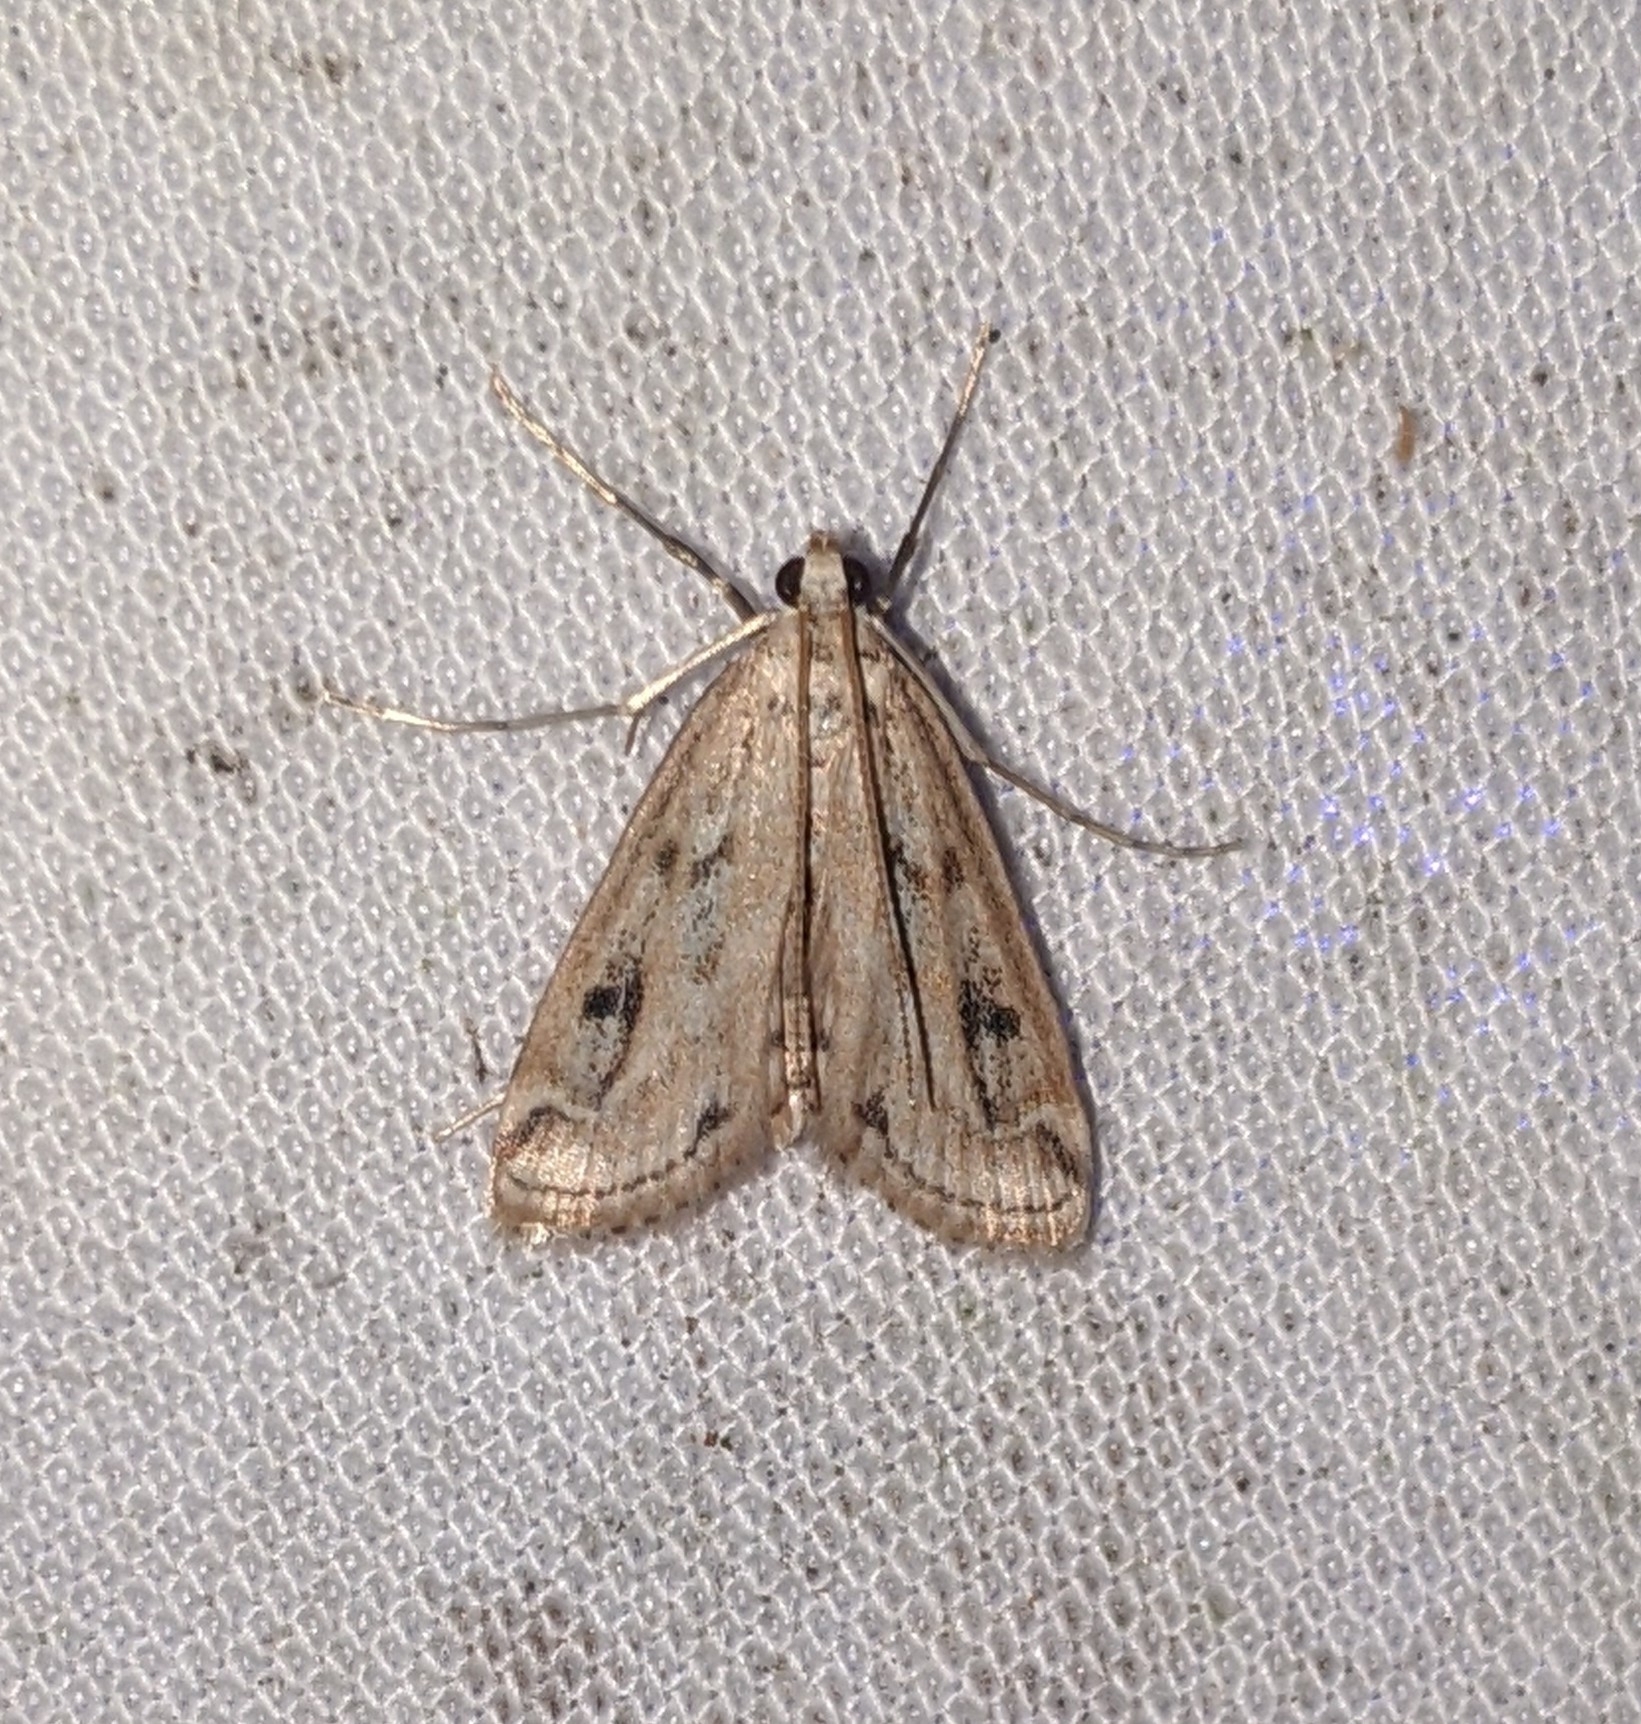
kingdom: Animalia
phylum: Arthropoda
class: Insecta
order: Lepidoptera
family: Crambidae
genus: Parapoynx
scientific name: Parapoynx allionealis
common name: Bladderwort casemaker
